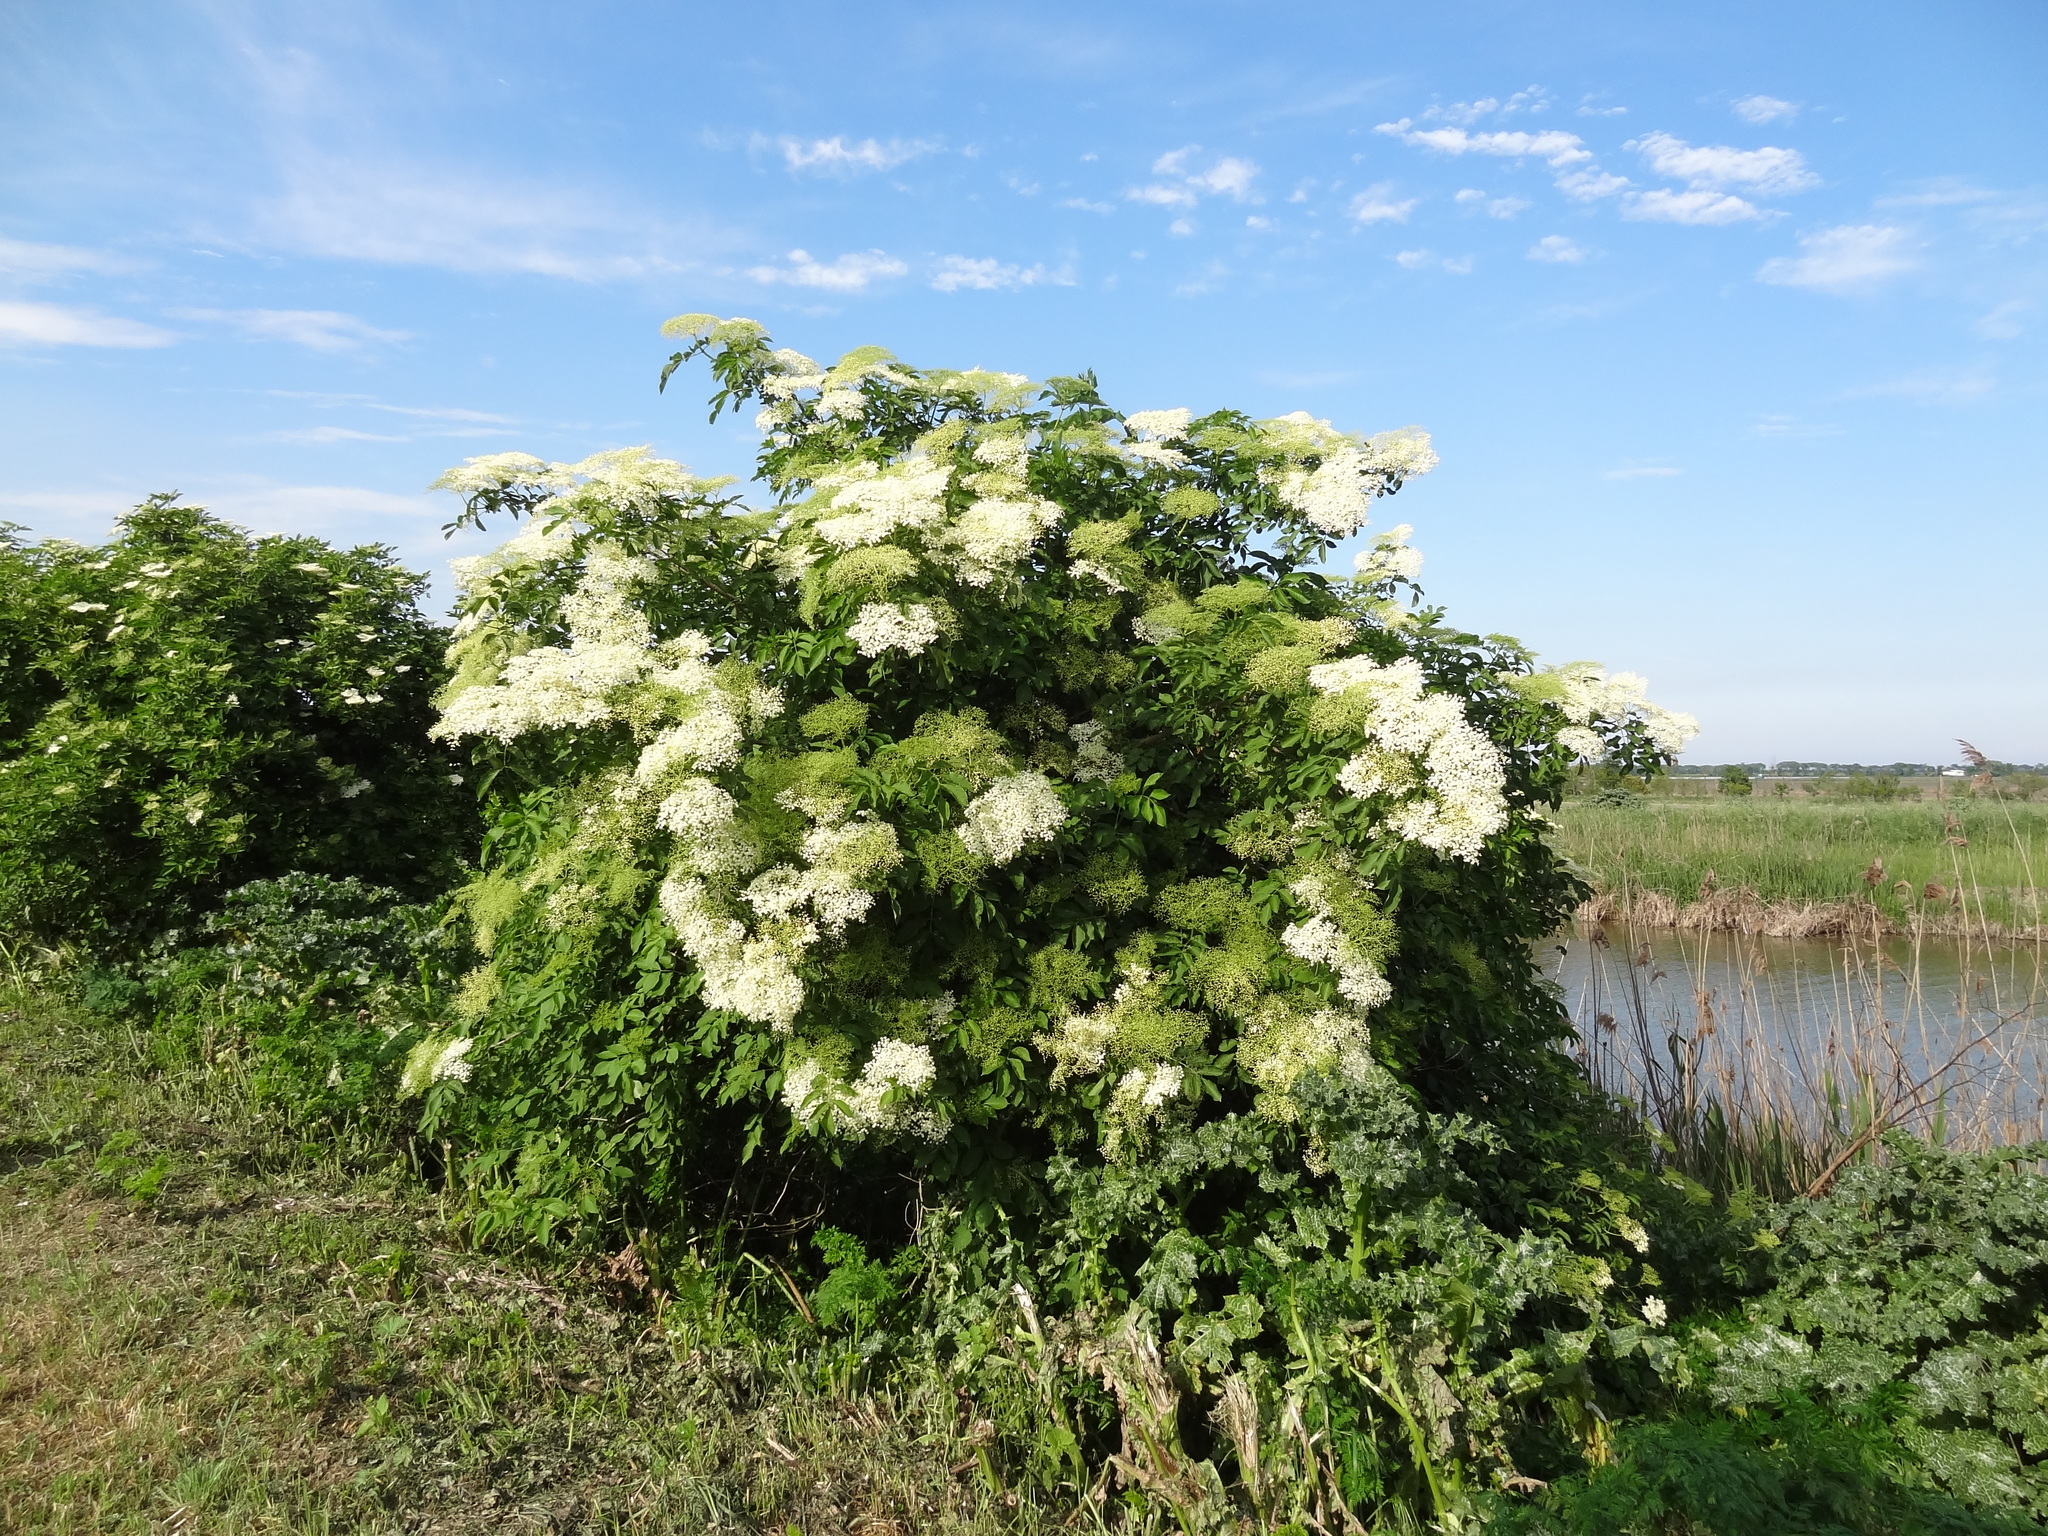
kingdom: Plantae
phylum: Tracheophyta
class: Magnoliopsida
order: Dipsacales
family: Viburnaceae
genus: Sambucus
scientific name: Sambucus nigra
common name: Elder
